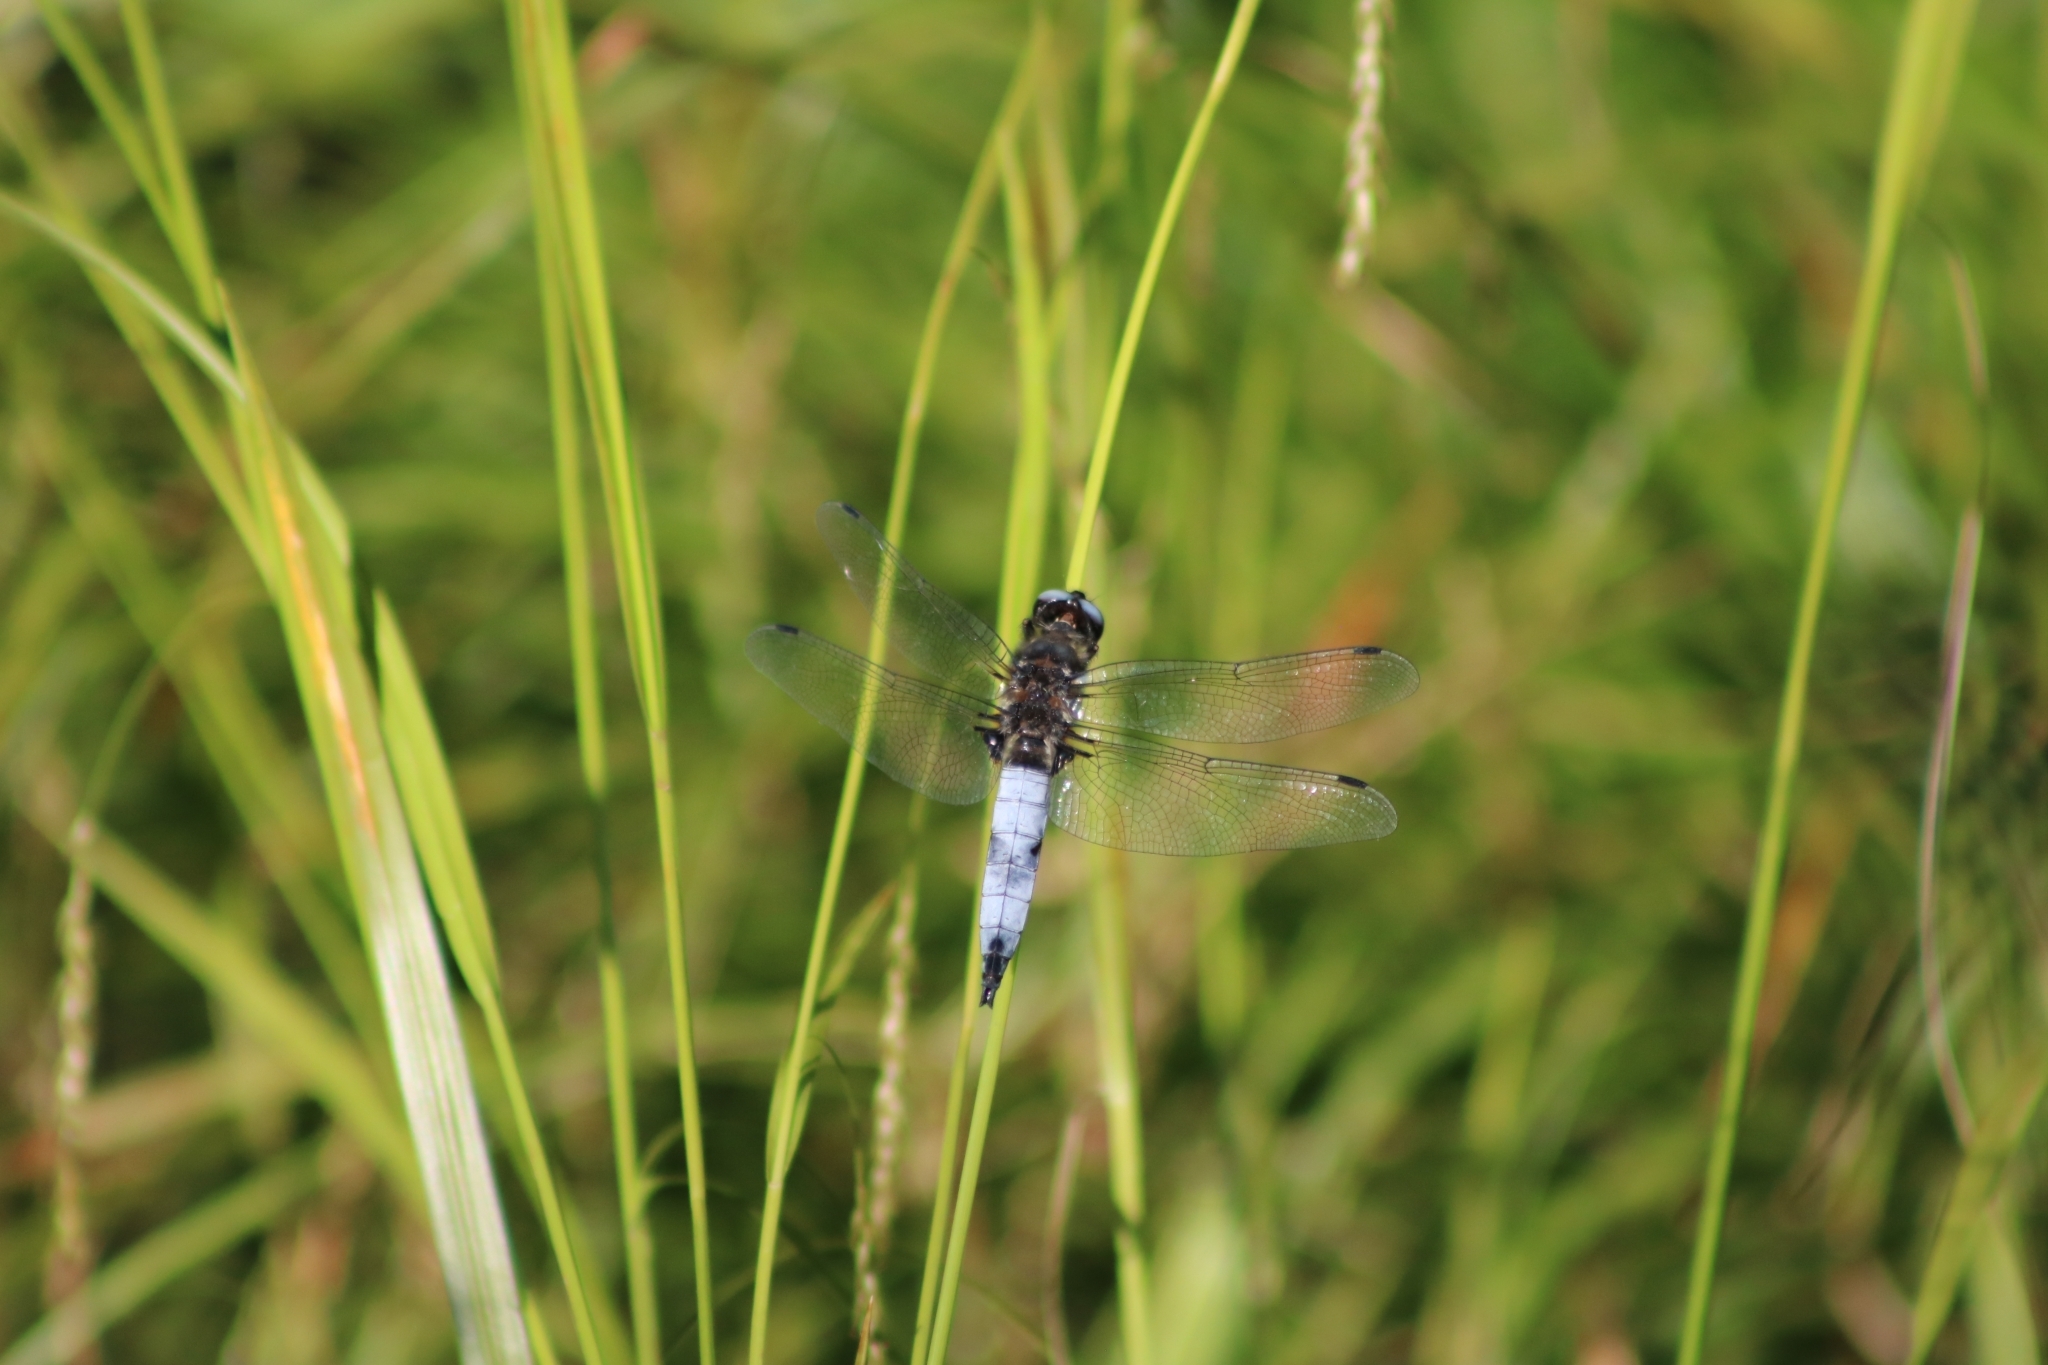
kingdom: Animalia
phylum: Arthropoda
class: Insecta
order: Odonata
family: Libellulidae
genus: Libellula
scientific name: Libellula fulva
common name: Blue chaser
